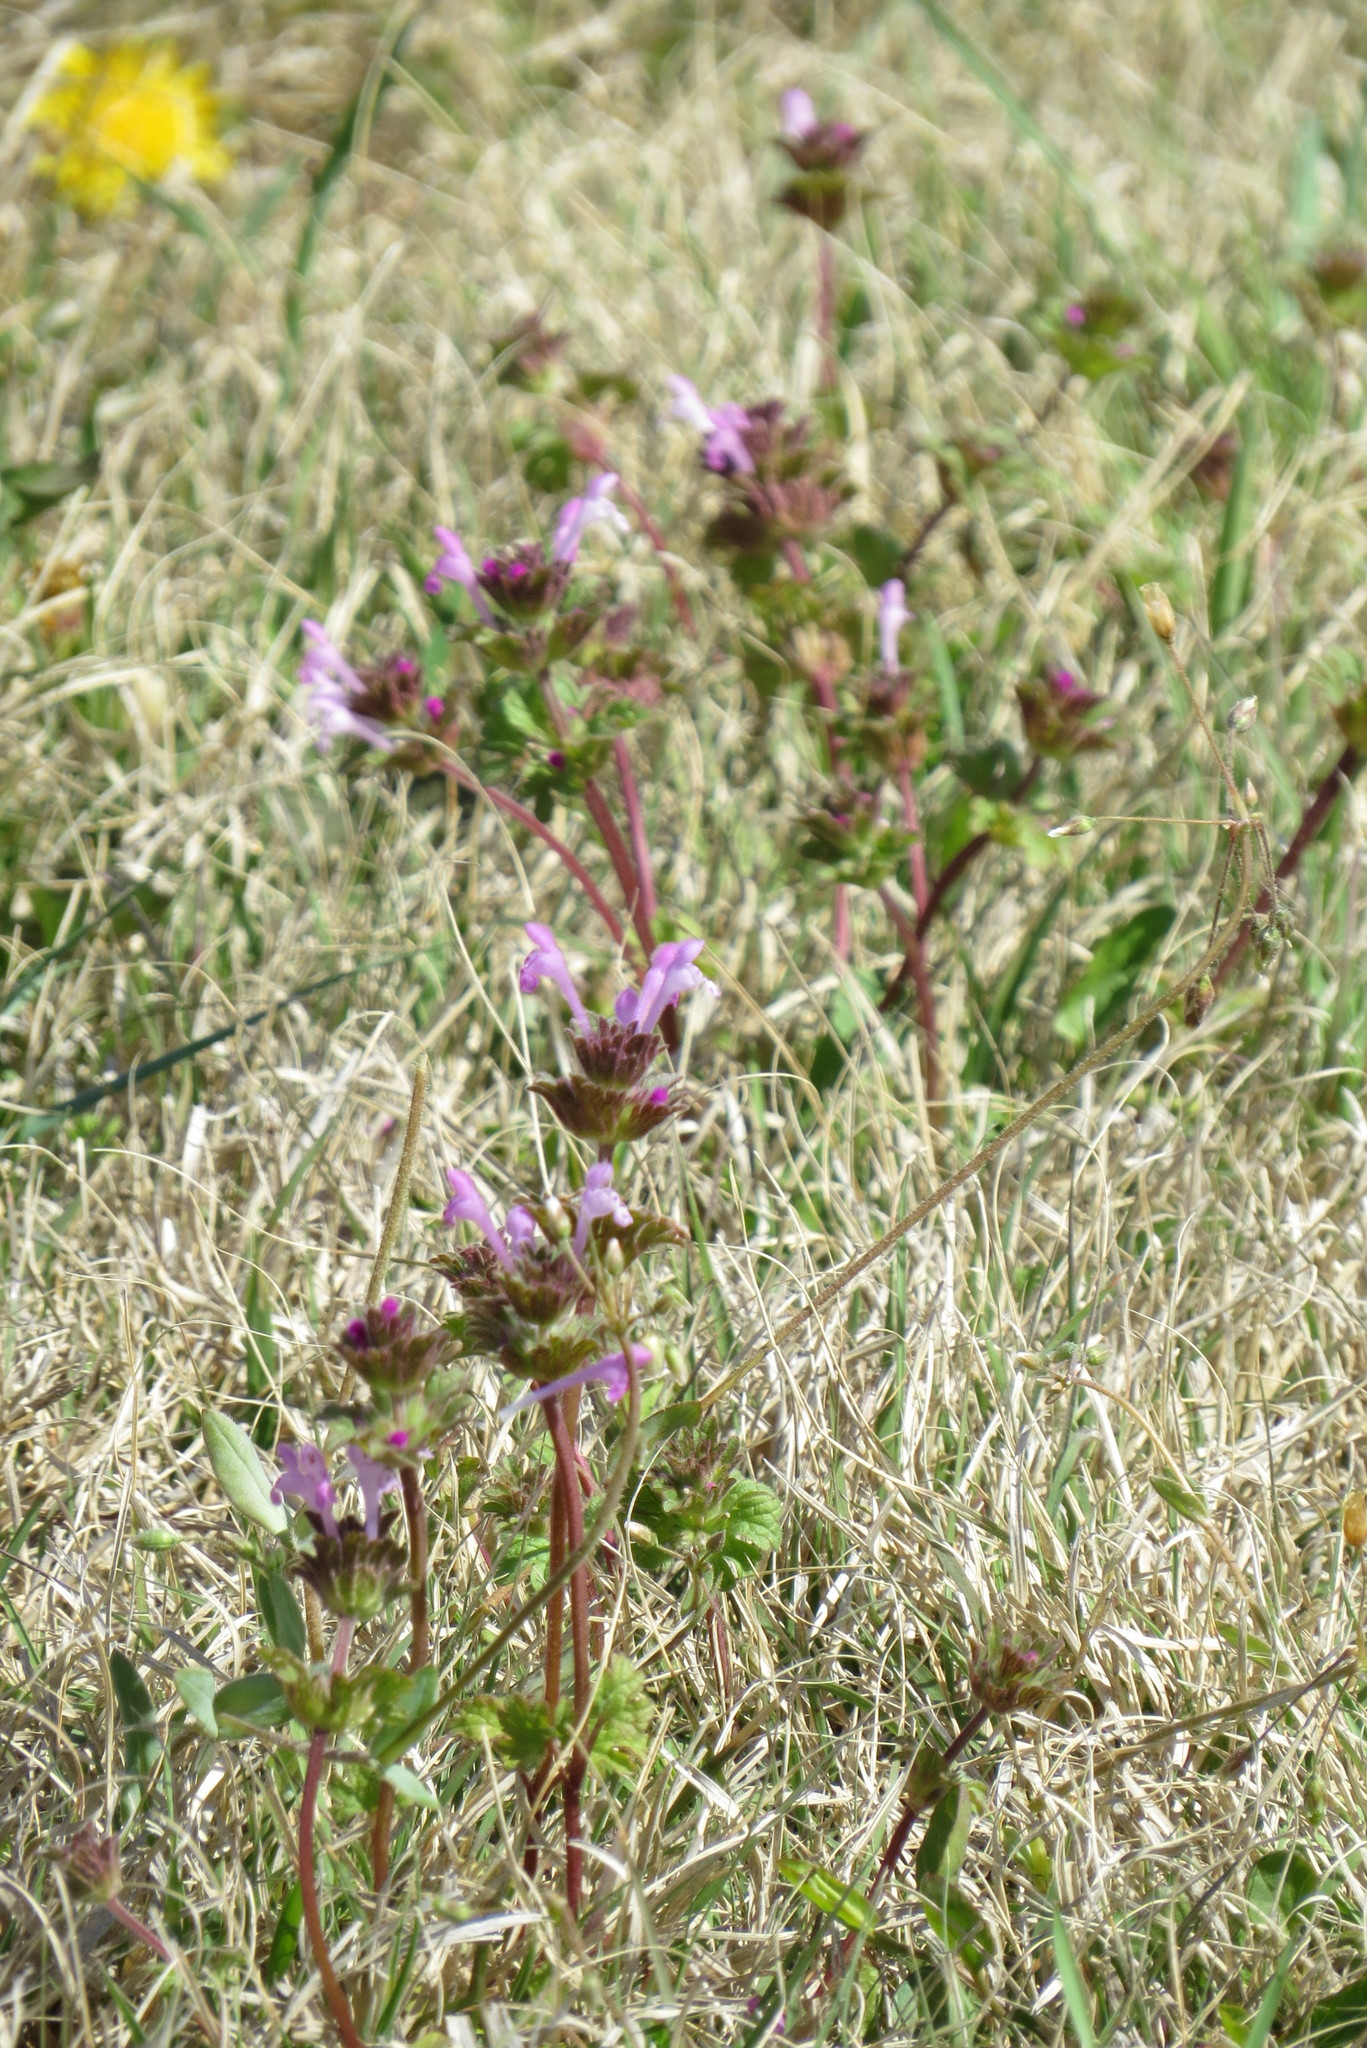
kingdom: Plantae
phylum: Tracheophyta
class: Magnoliopsida
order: Lamiales
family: Lamiaceae
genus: Lamium
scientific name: Lamium amplexicaule
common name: Henbit dead-nettle
